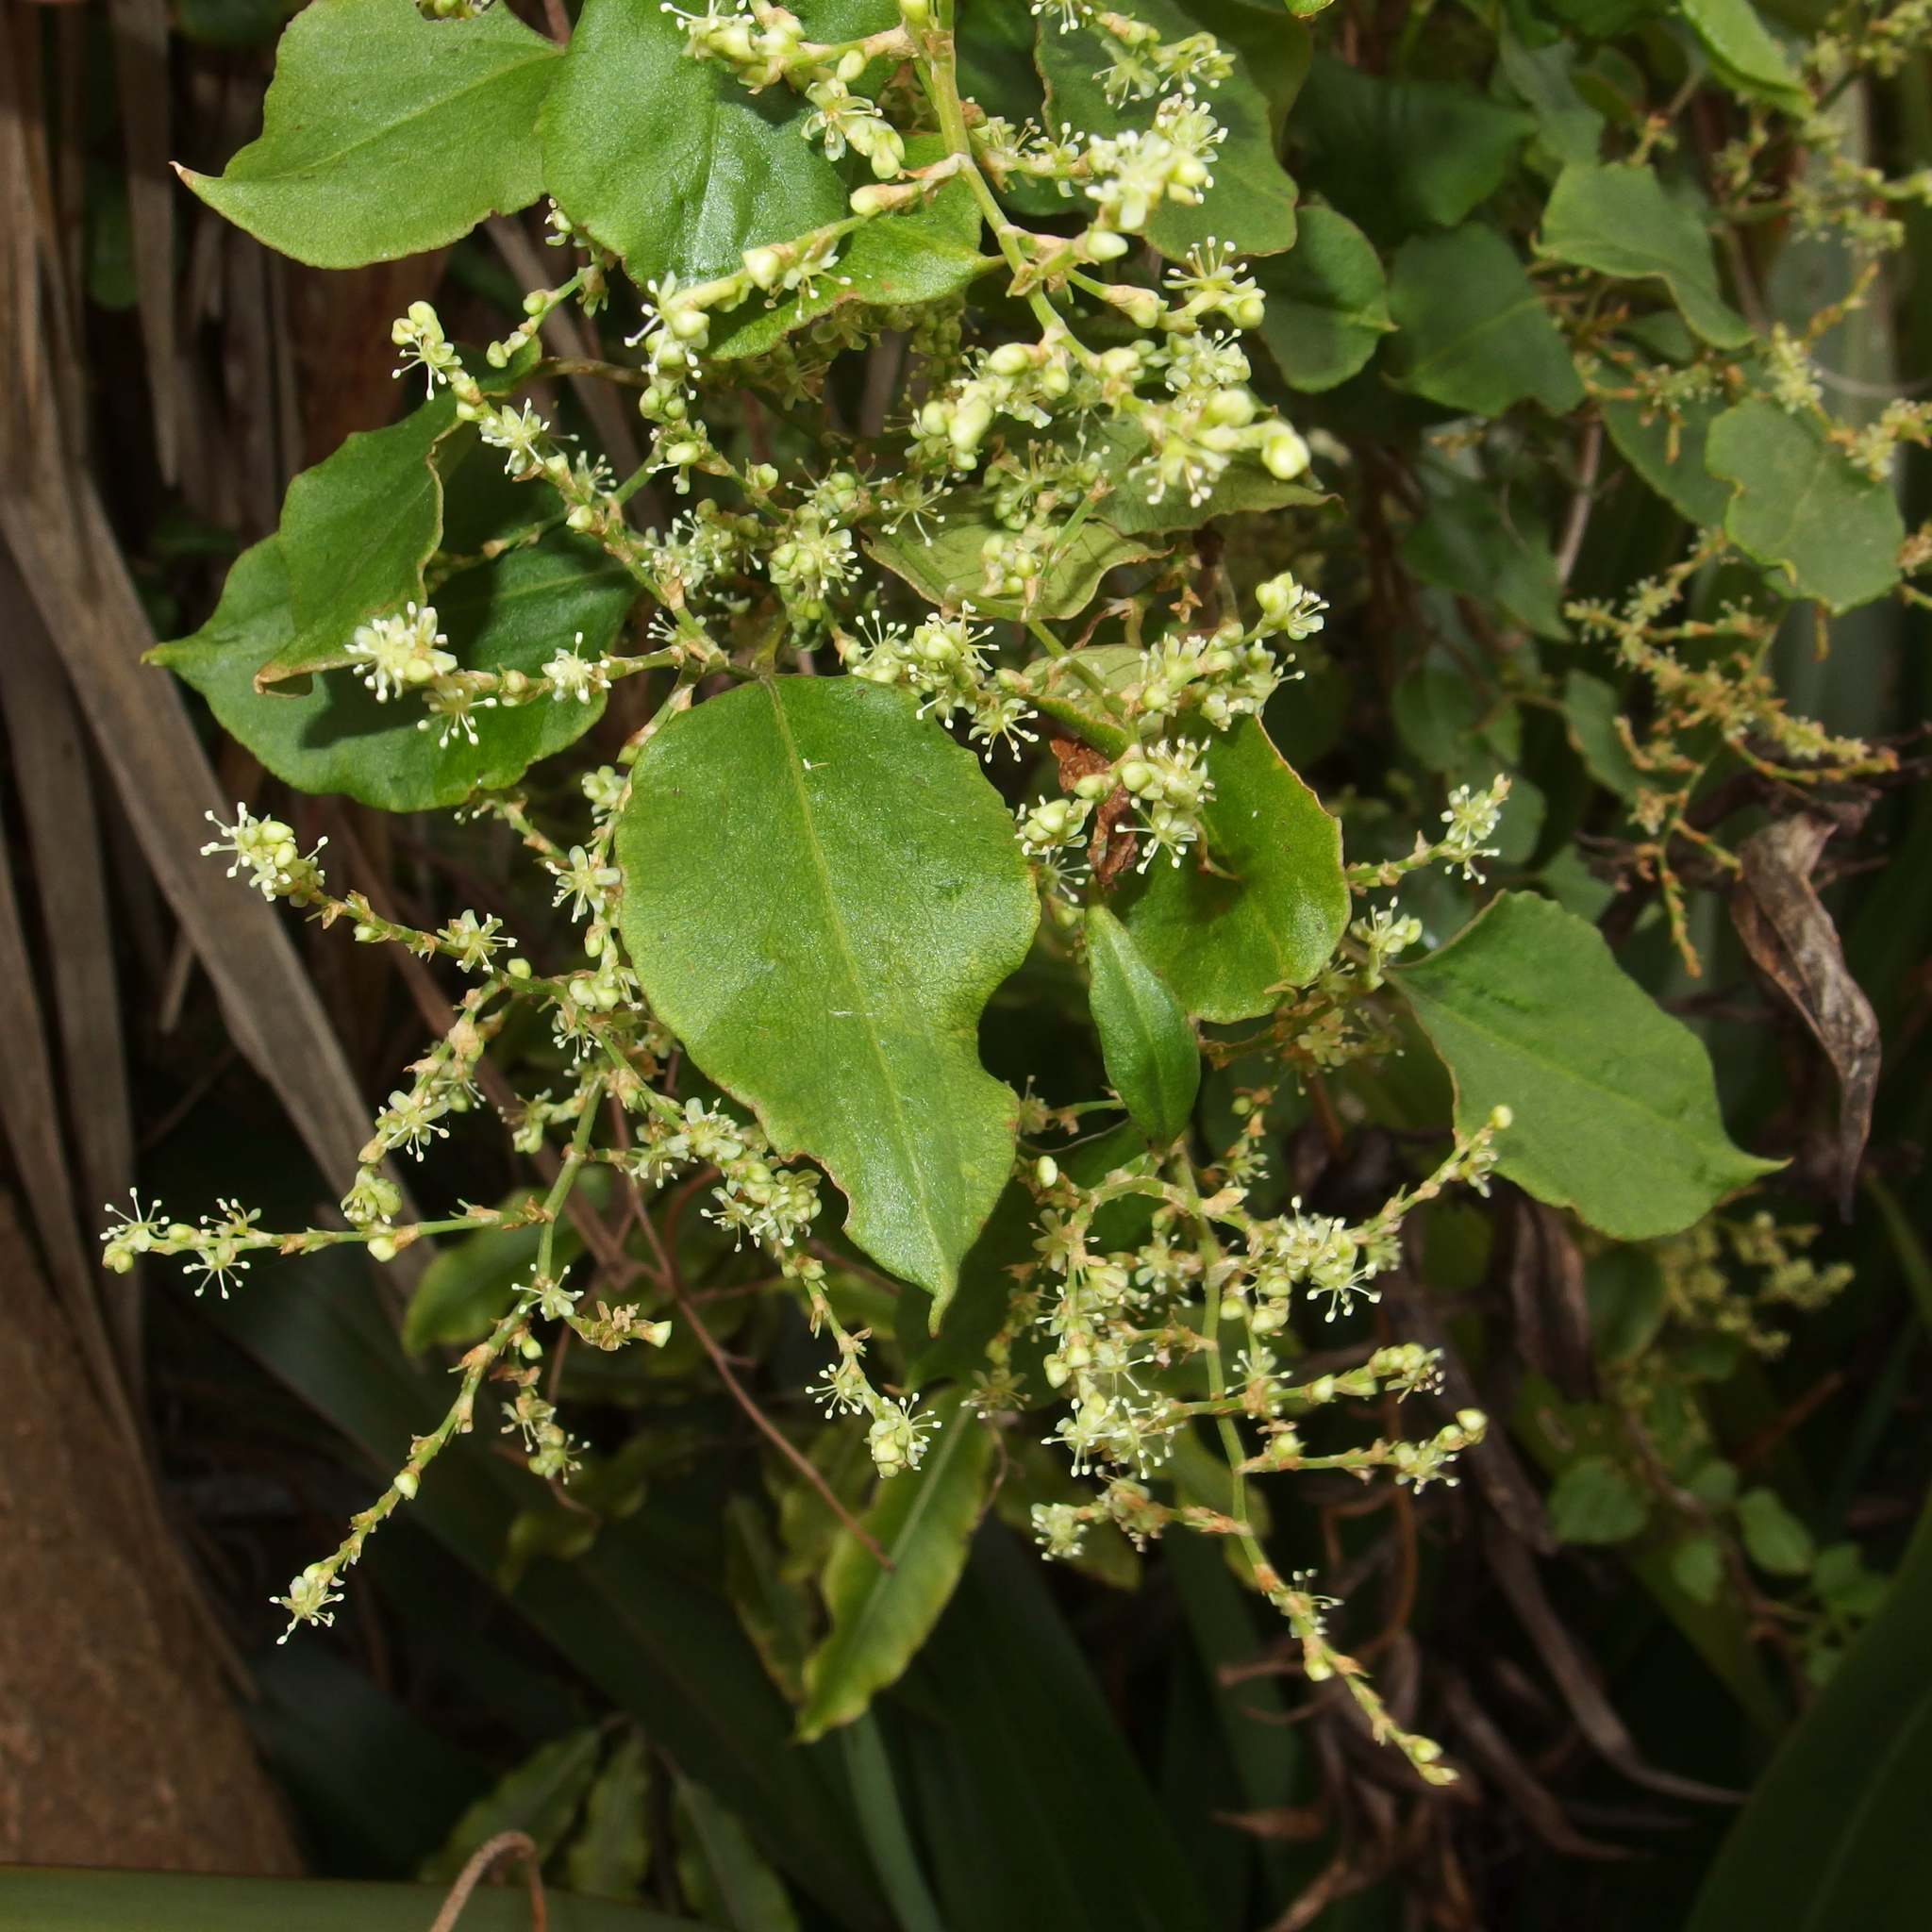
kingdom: Plantae
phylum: Tracheophyta
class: Magnoliopsida
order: Caryophyllales
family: Polygonaceae
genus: Muehlenbeckia
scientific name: Muehlenbeckia australis
